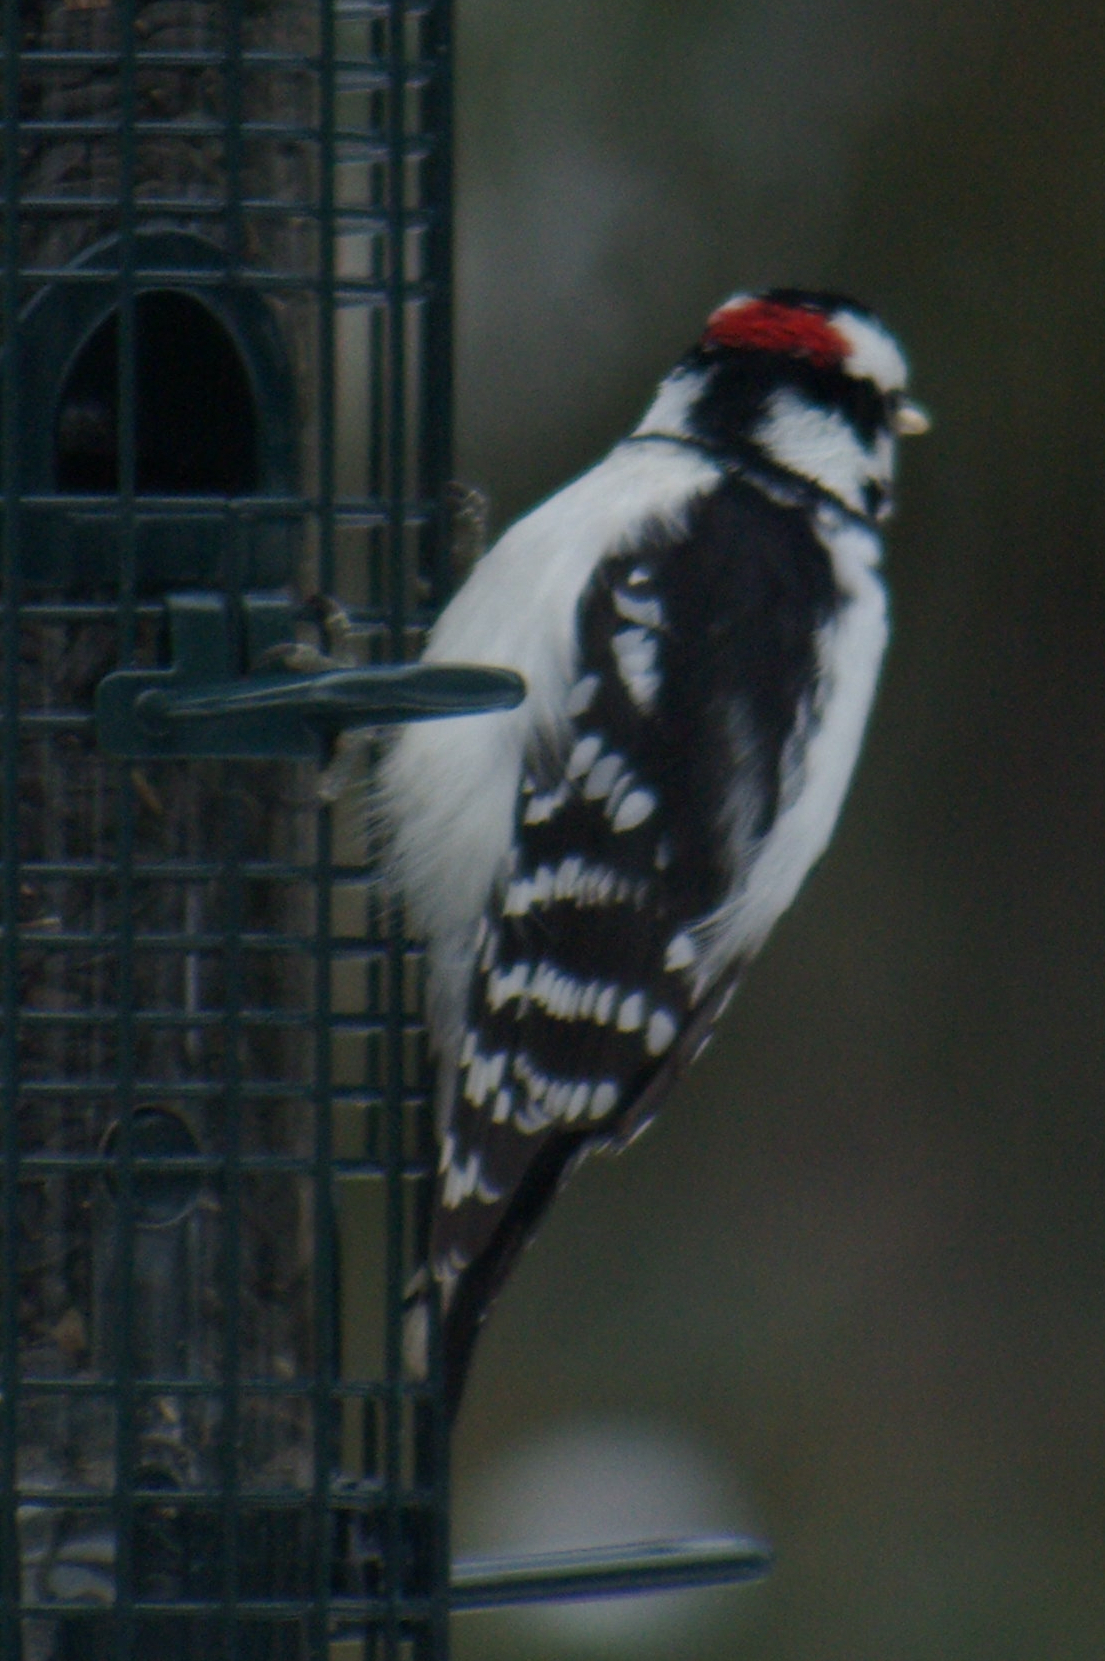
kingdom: Animalia
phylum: Chordata
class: Aves
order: Piciformes
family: Picidae
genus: Dryobates
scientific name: Dryobates pubescens
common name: Downy woodpecker
